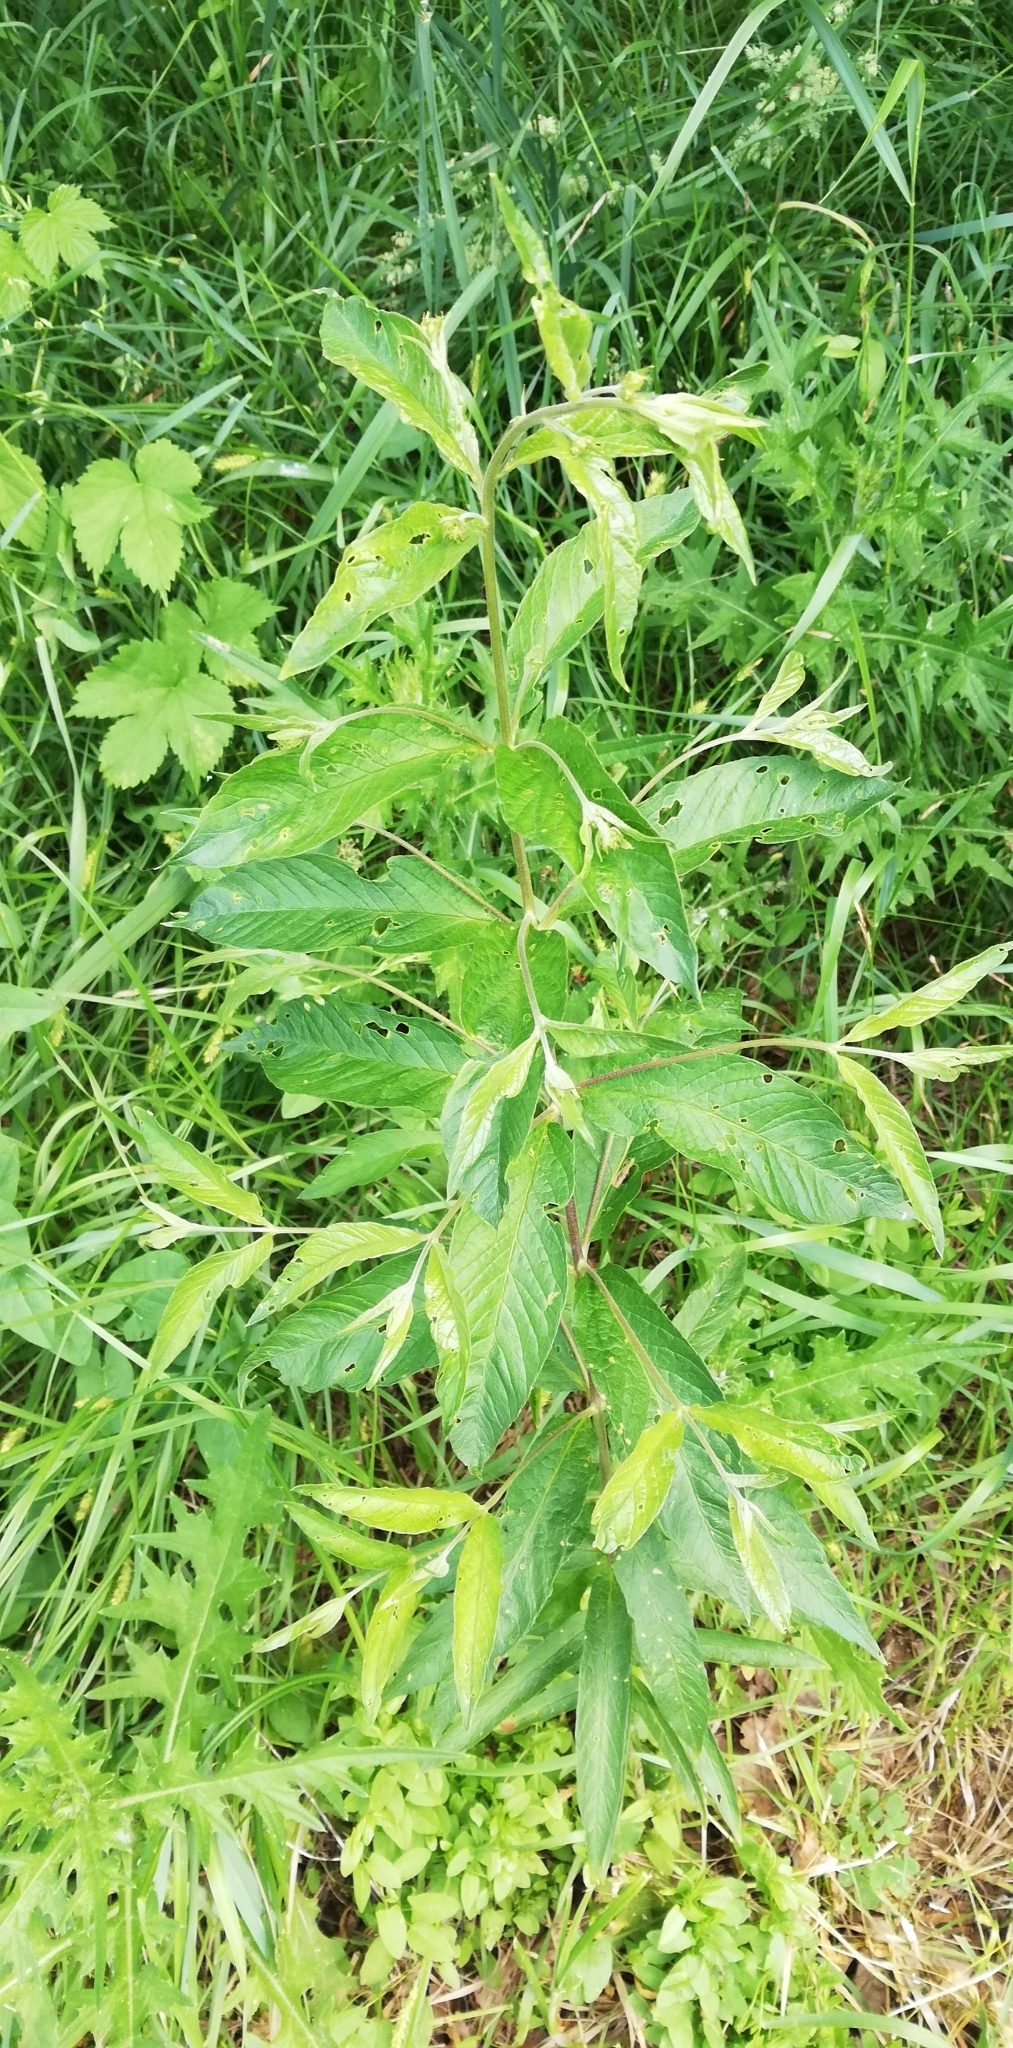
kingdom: Plantae
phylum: Tracheophyta
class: Magnoliopsida
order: Ericales
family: Primulaceae
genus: Lysimachia
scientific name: Lysimachia vulgaris
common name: Yellow loosestrife
